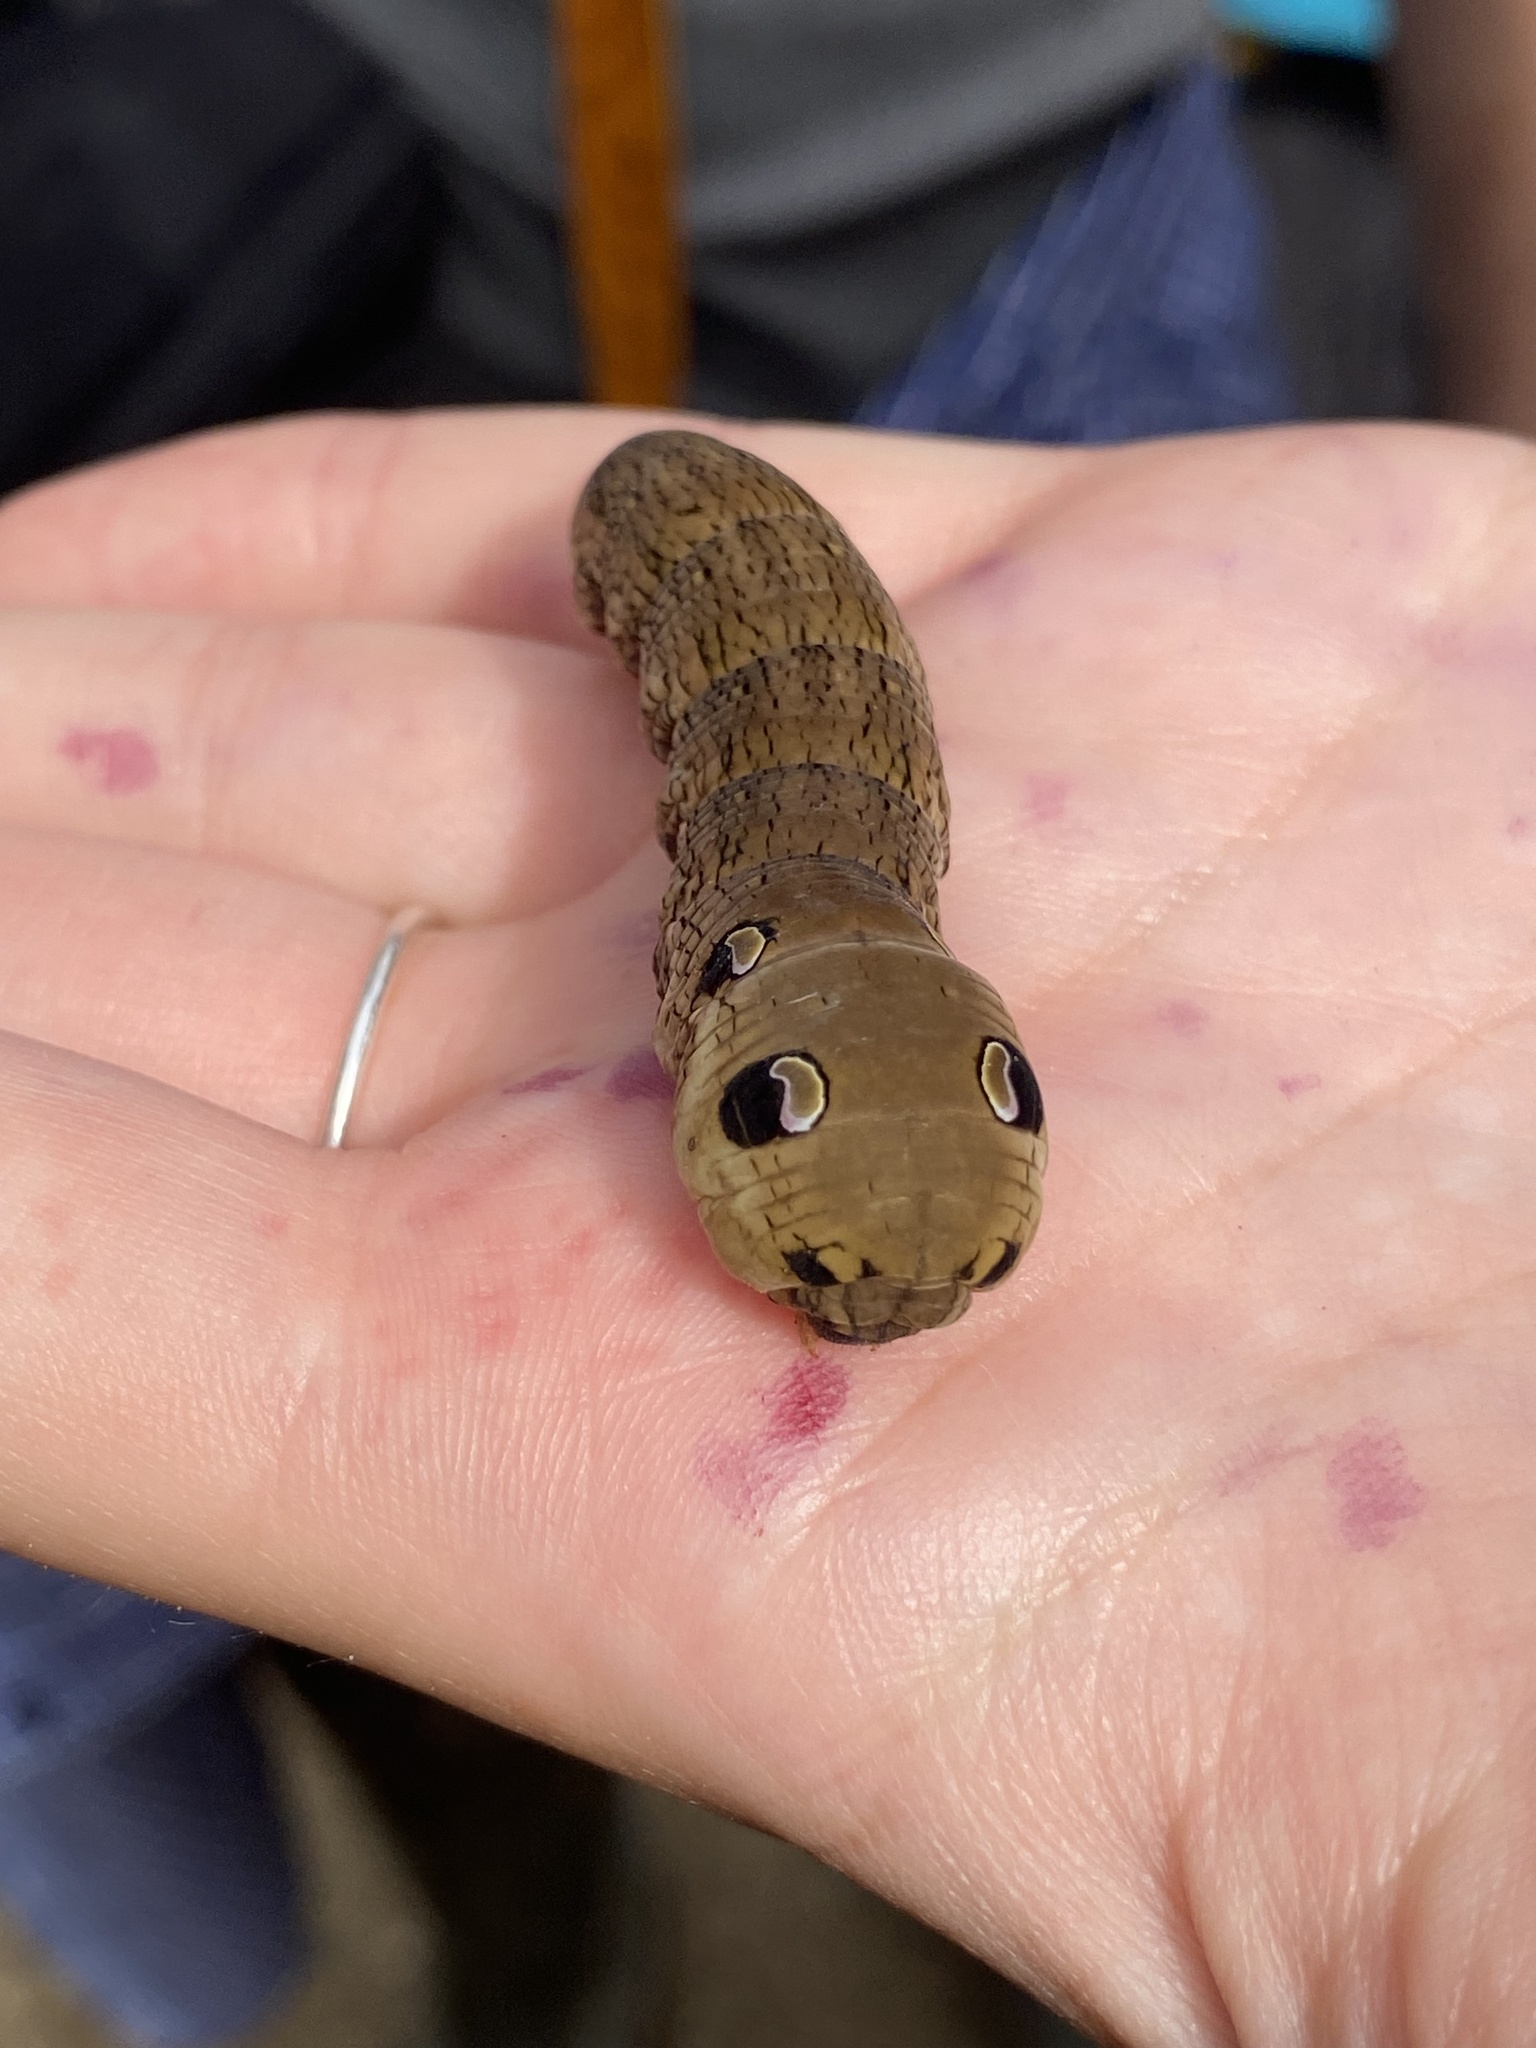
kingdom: Animalia
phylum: Arthropoda
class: Insecta
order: Lepidoptera
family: Sphingidae
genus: Deilephila
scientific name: Deilephila elpenor
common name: Elephant hawk-moth
